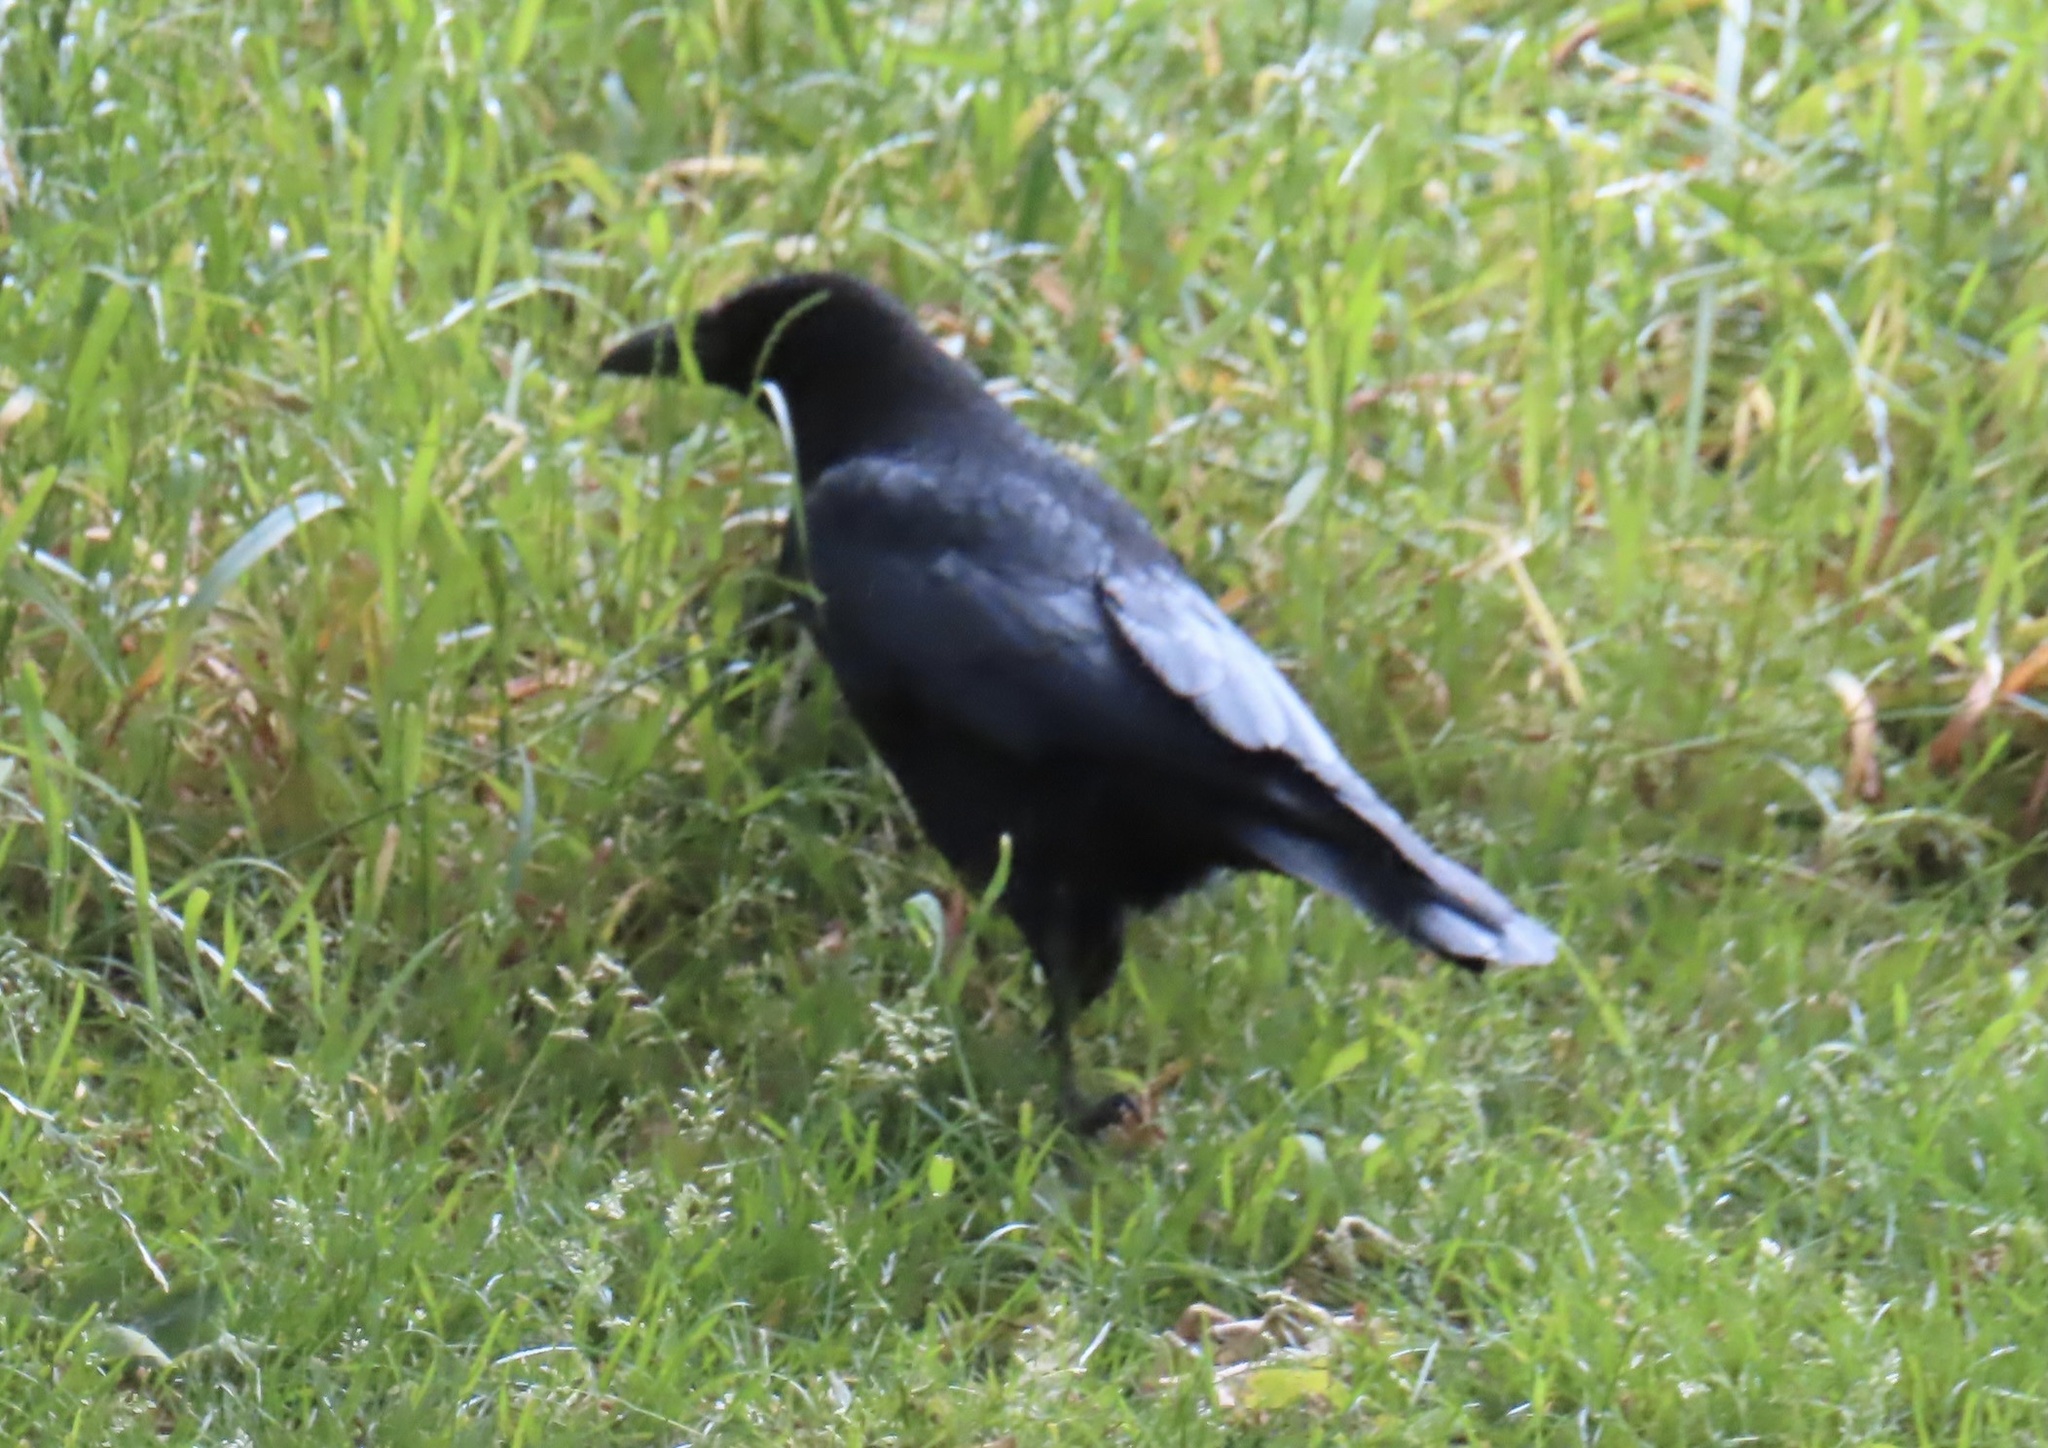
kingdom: Animalia
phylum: Chordata
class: Aves
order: Passeriformes
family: Corvidae
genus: Corvus
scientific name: Corvus corone
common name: Carrion crow
